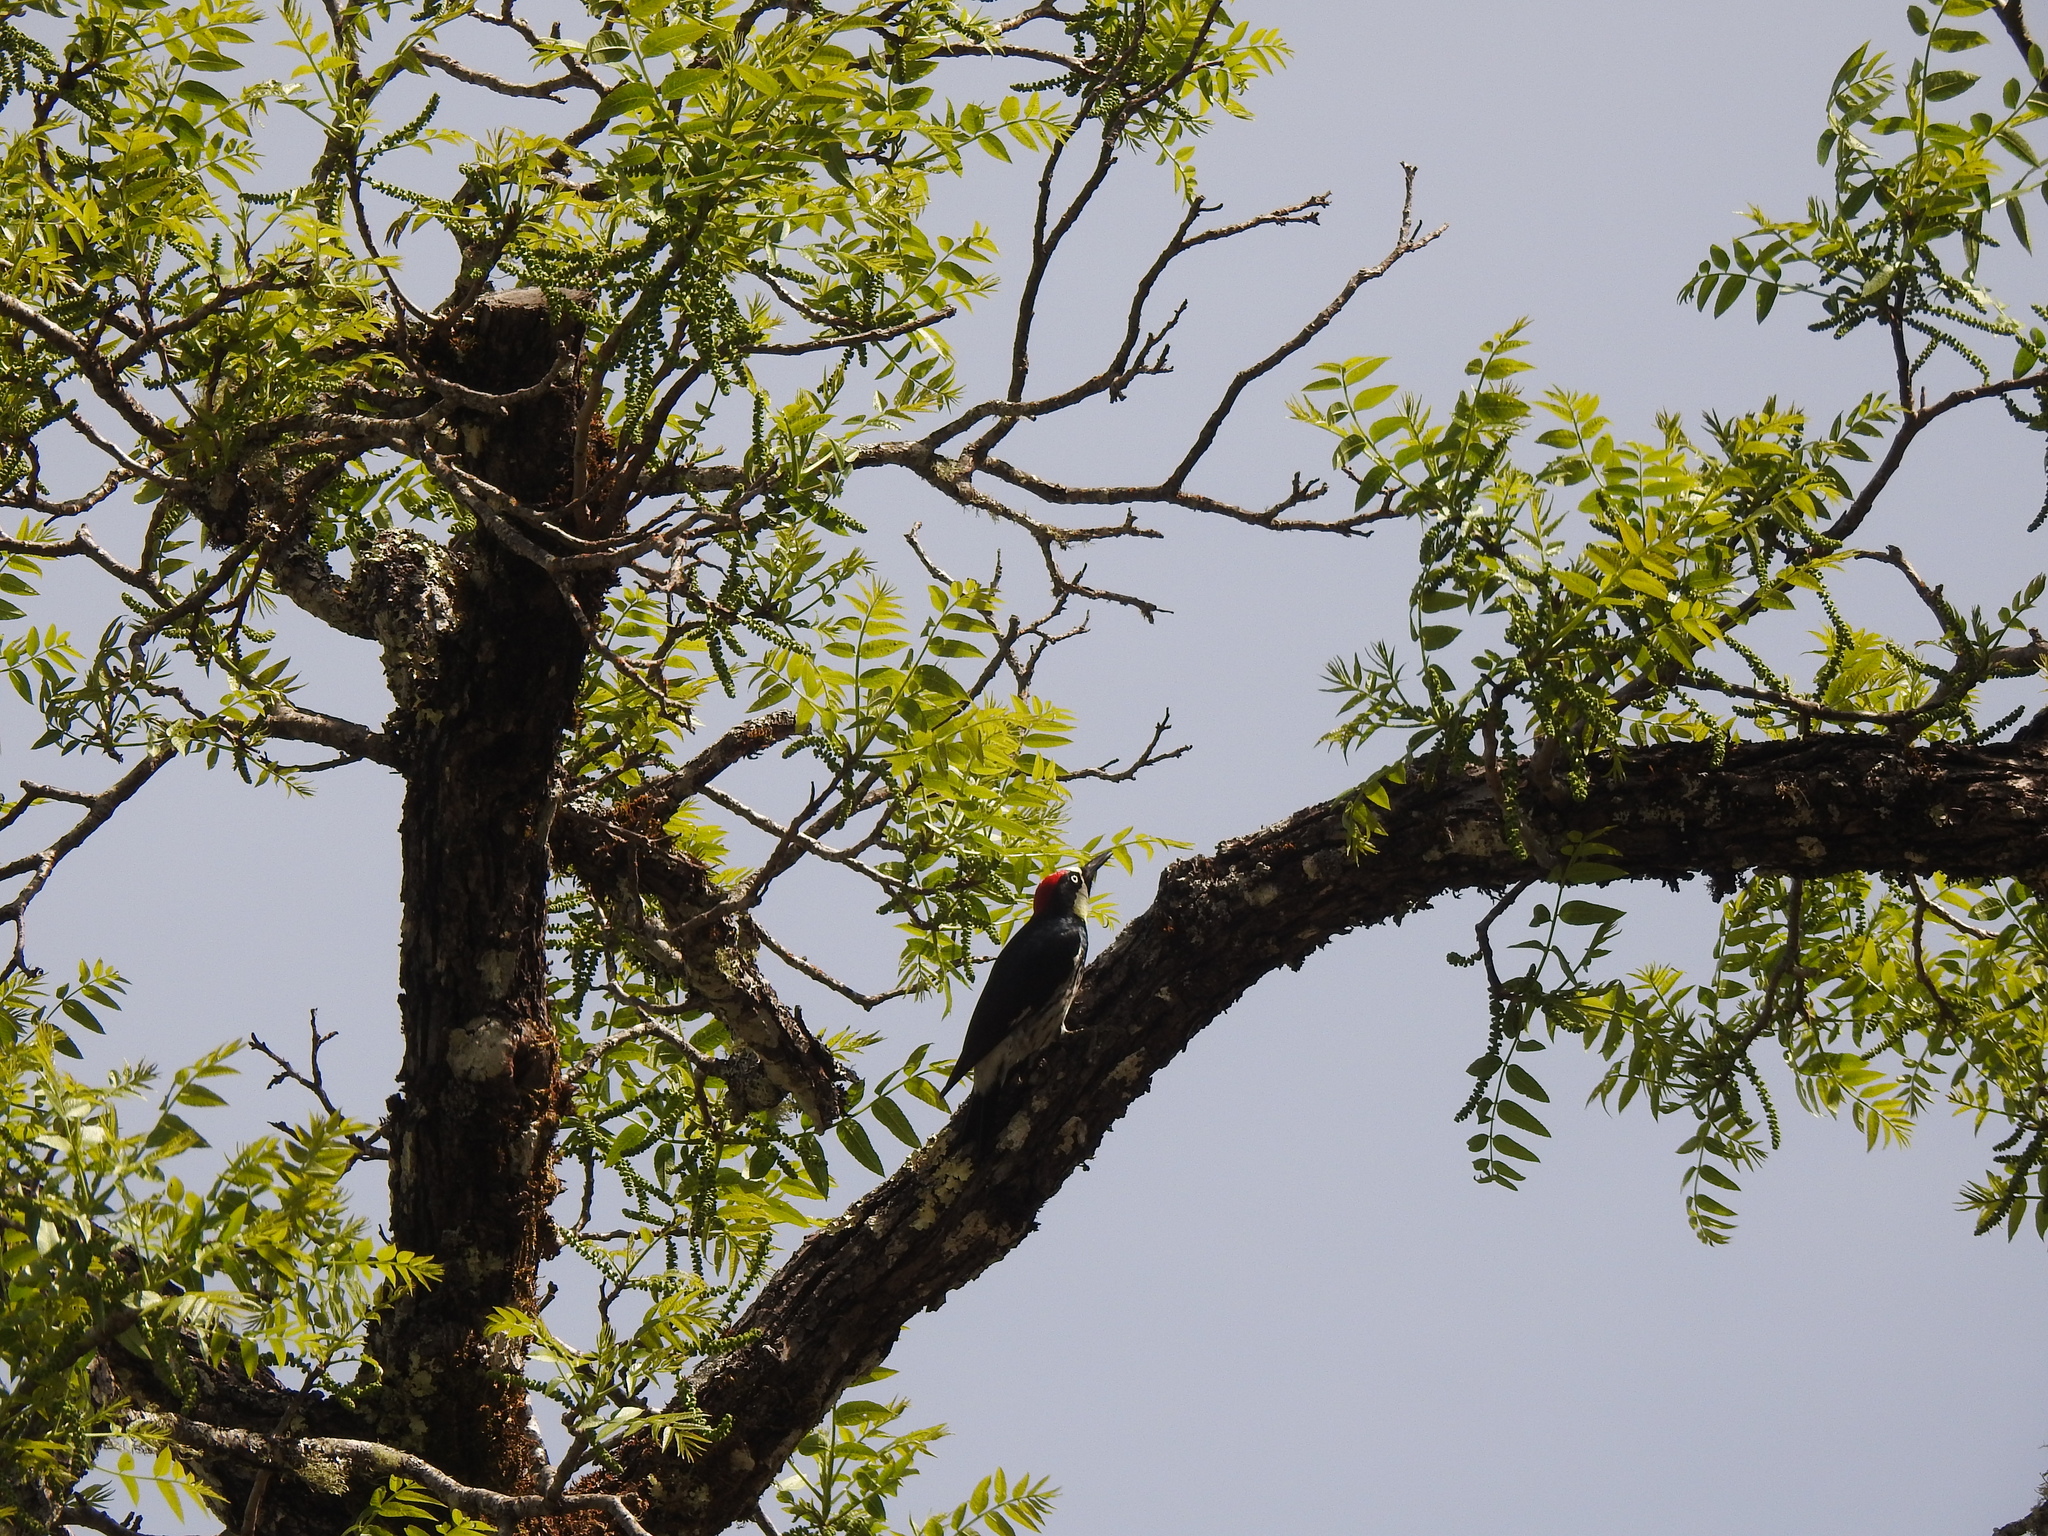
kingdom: Animalia
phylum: Chordata
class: Aves
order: Piciformes
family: Picidae
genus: Melanerpes
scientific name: Melanerpes formicivorus
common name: Acorn woodpecker
